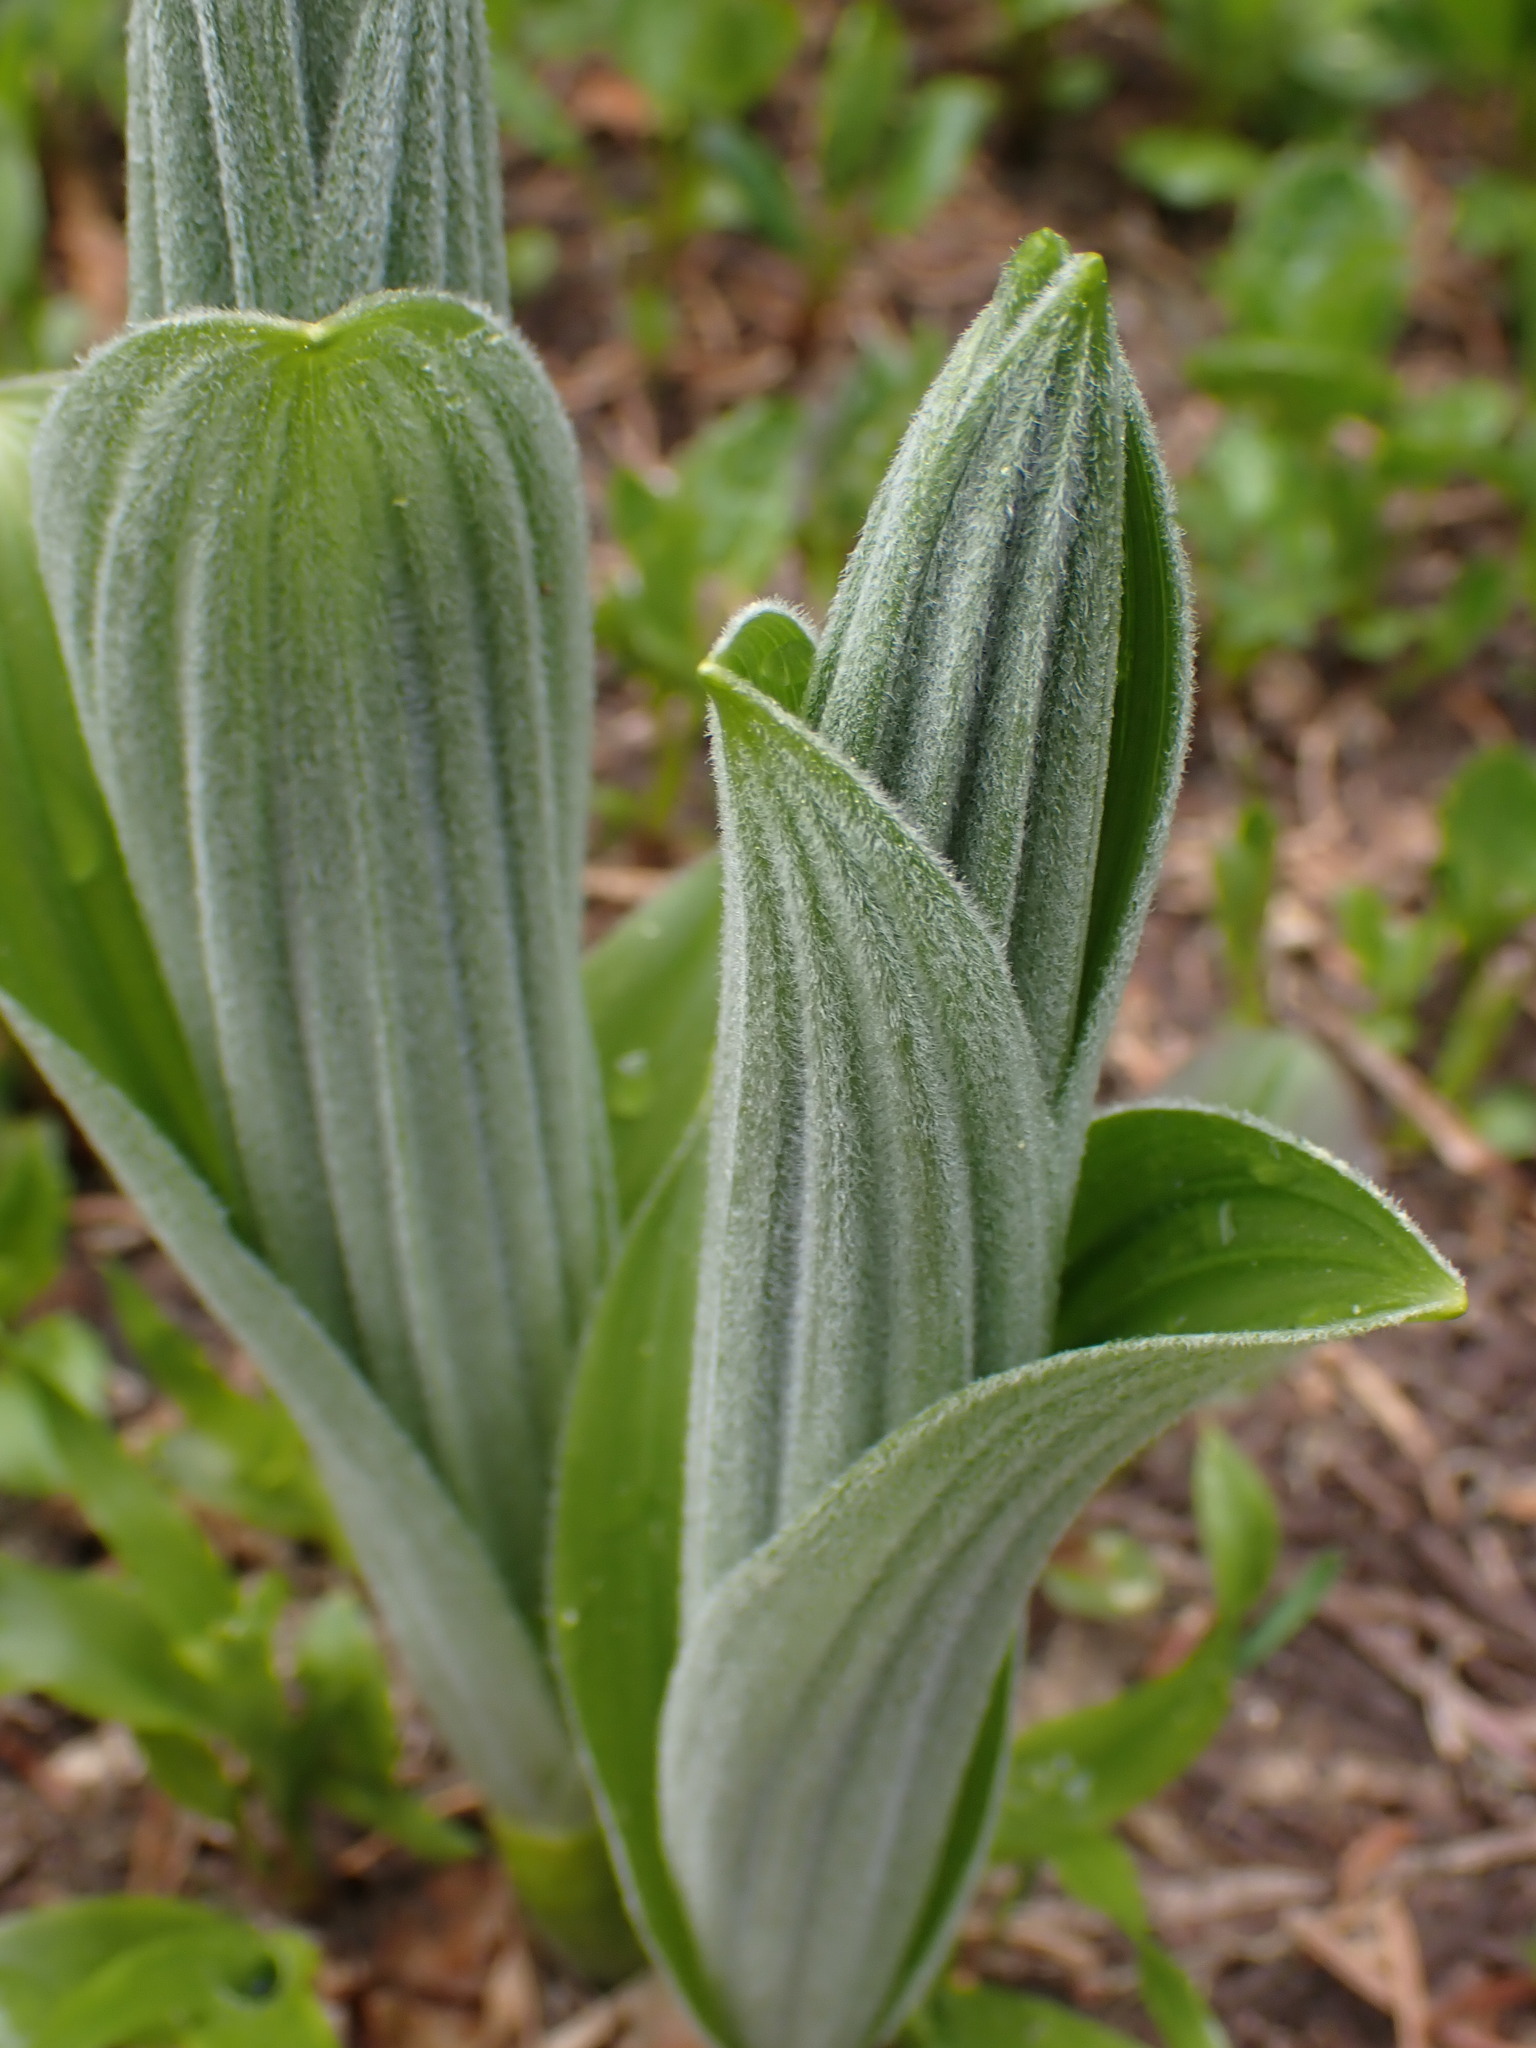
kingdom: Plantae
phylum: Tracheophyta
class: Liliopsida
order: Liliales
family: Melanthiaceae
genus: Veratrum
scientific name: Veratrum viride
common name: American false hellebore
